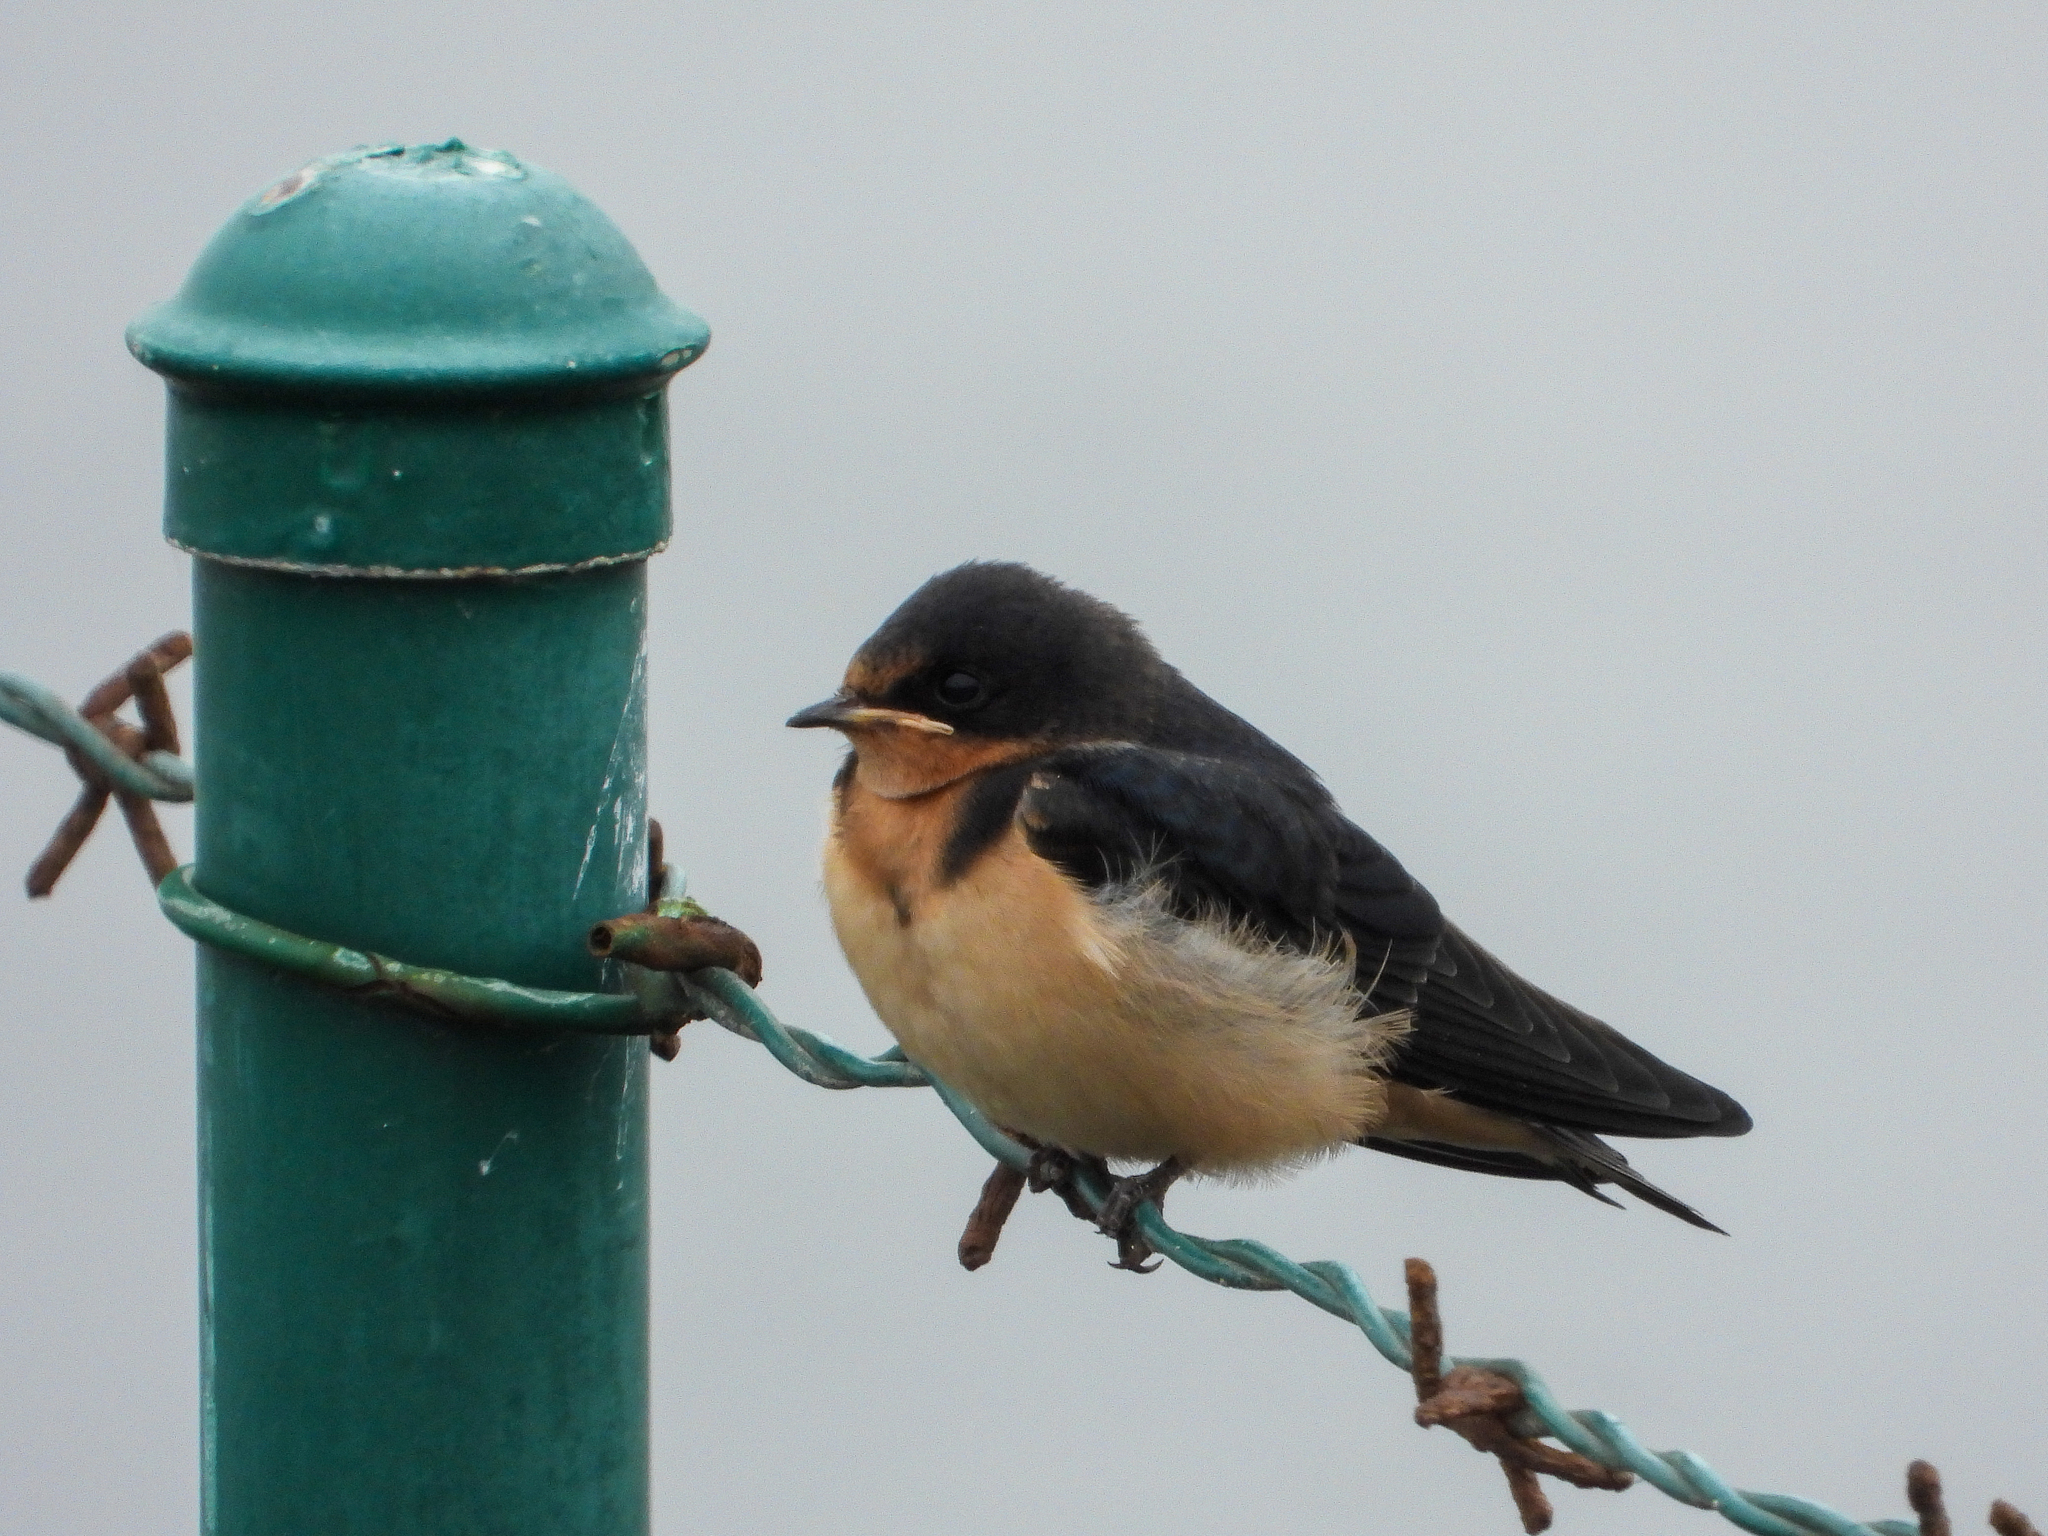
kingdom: Animalia
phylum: Chordata
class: Aves
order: Passeriformes
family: Hirundinidae
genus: Hirundo
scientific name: Hirundo rustica
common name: Barn swallow
